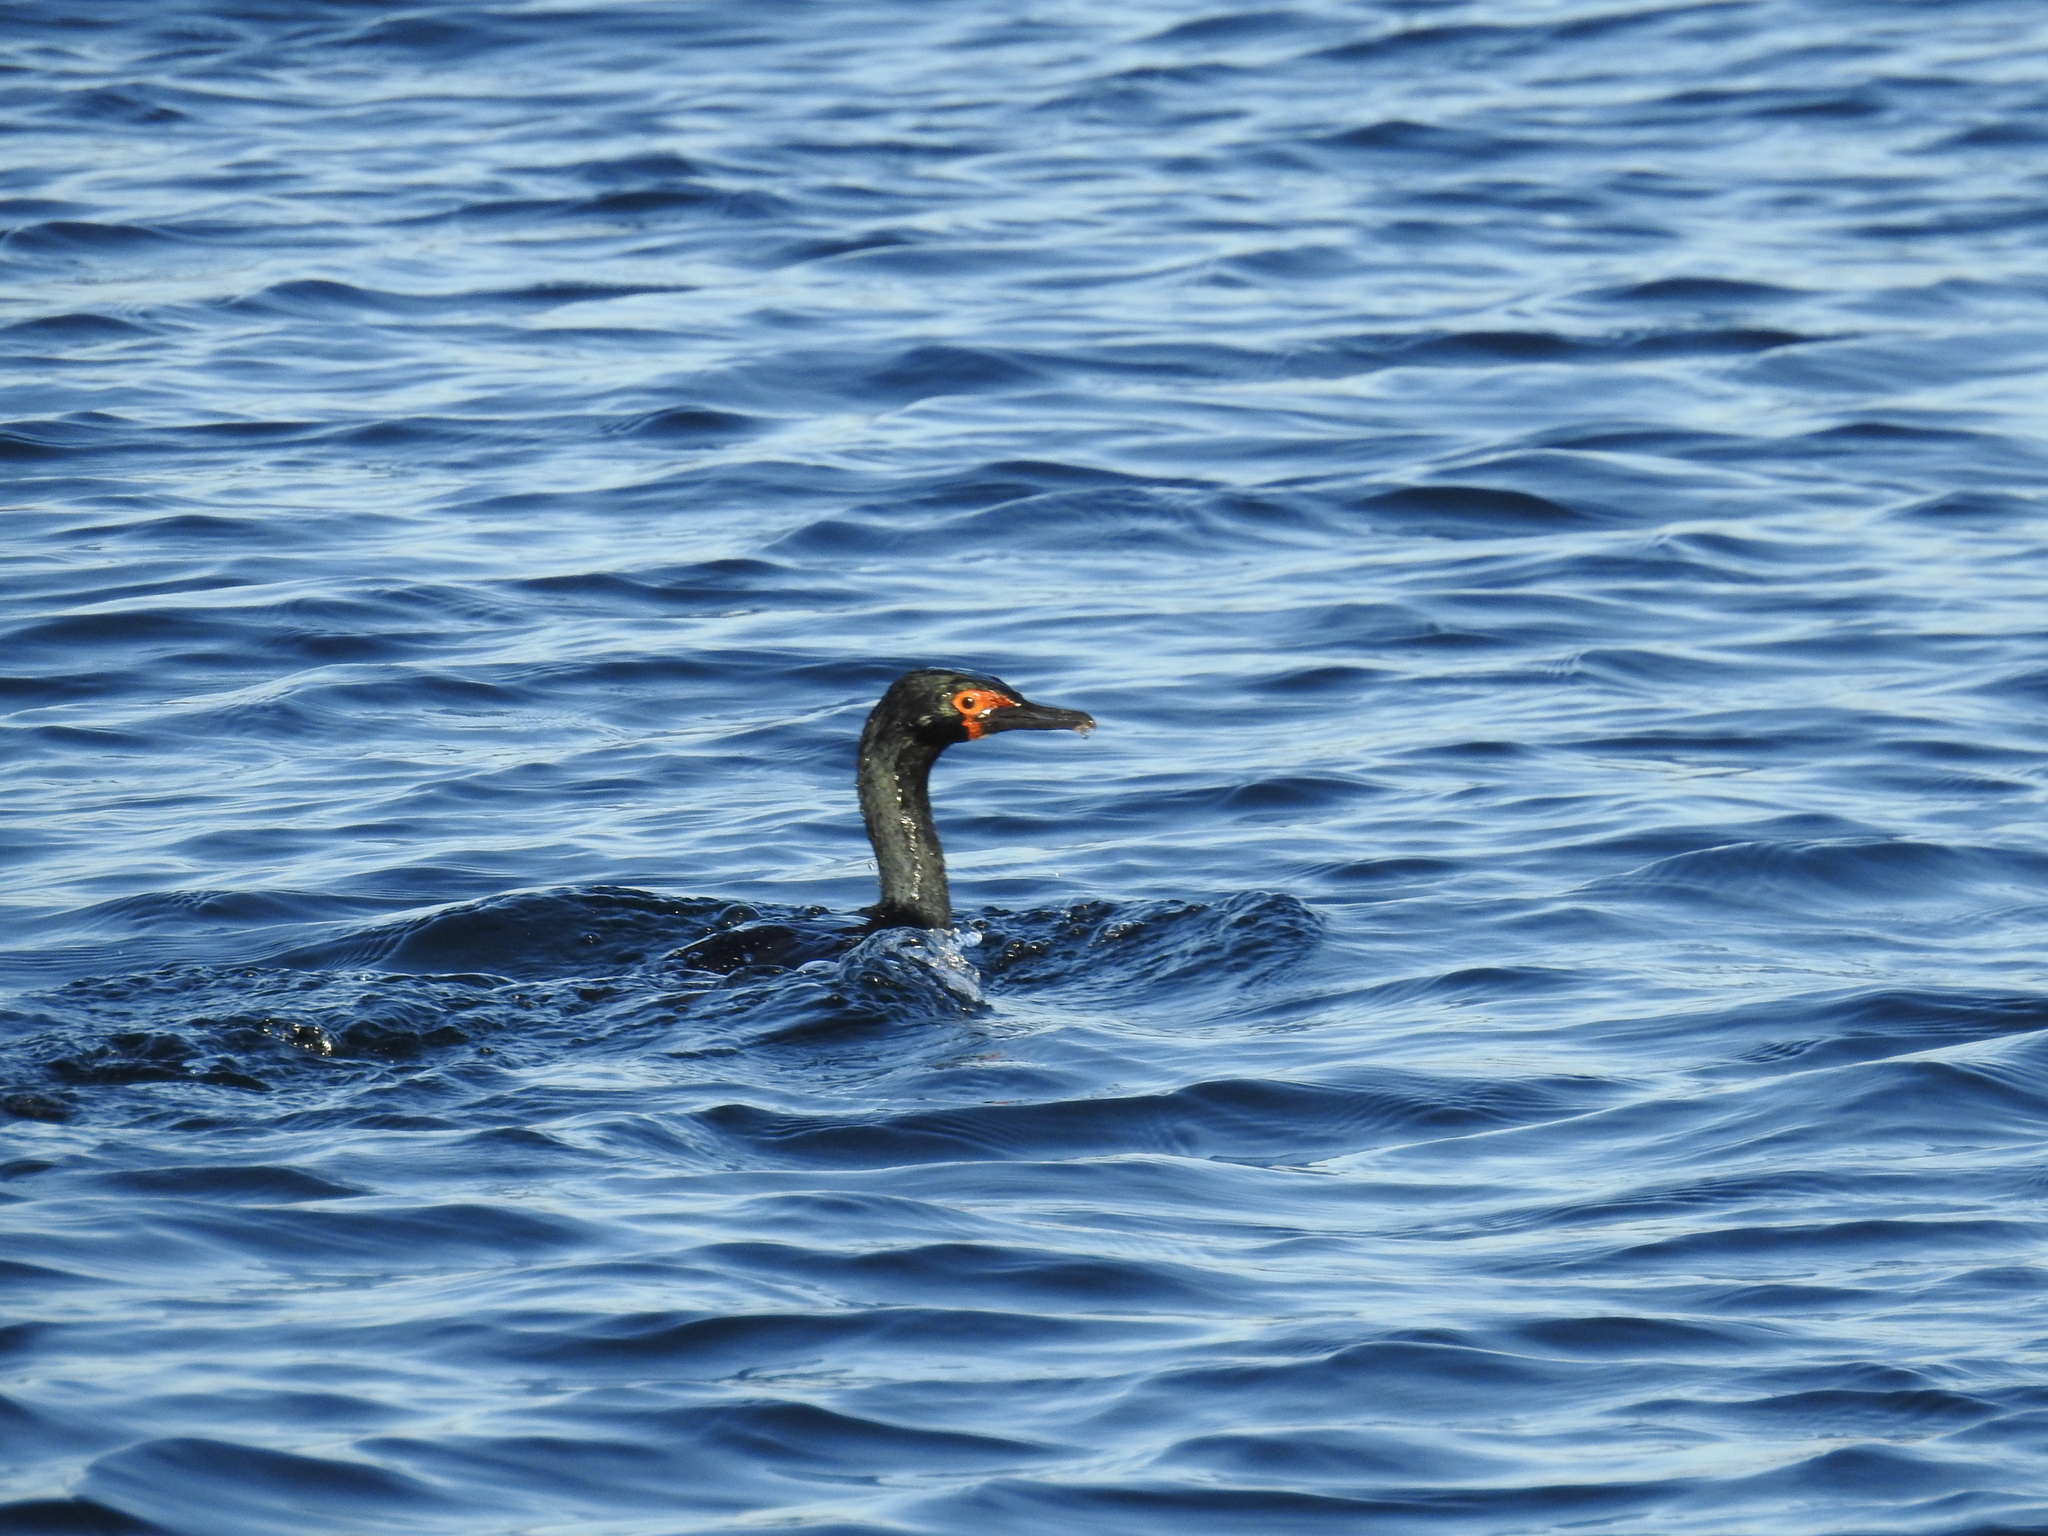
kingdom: Animalia
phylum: Chordata
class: Aves
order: Suliformes
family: Phalacrocoracidae
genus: Phalacrocorax
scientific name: Phalacrocorax magellanicus
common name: Rock shag
